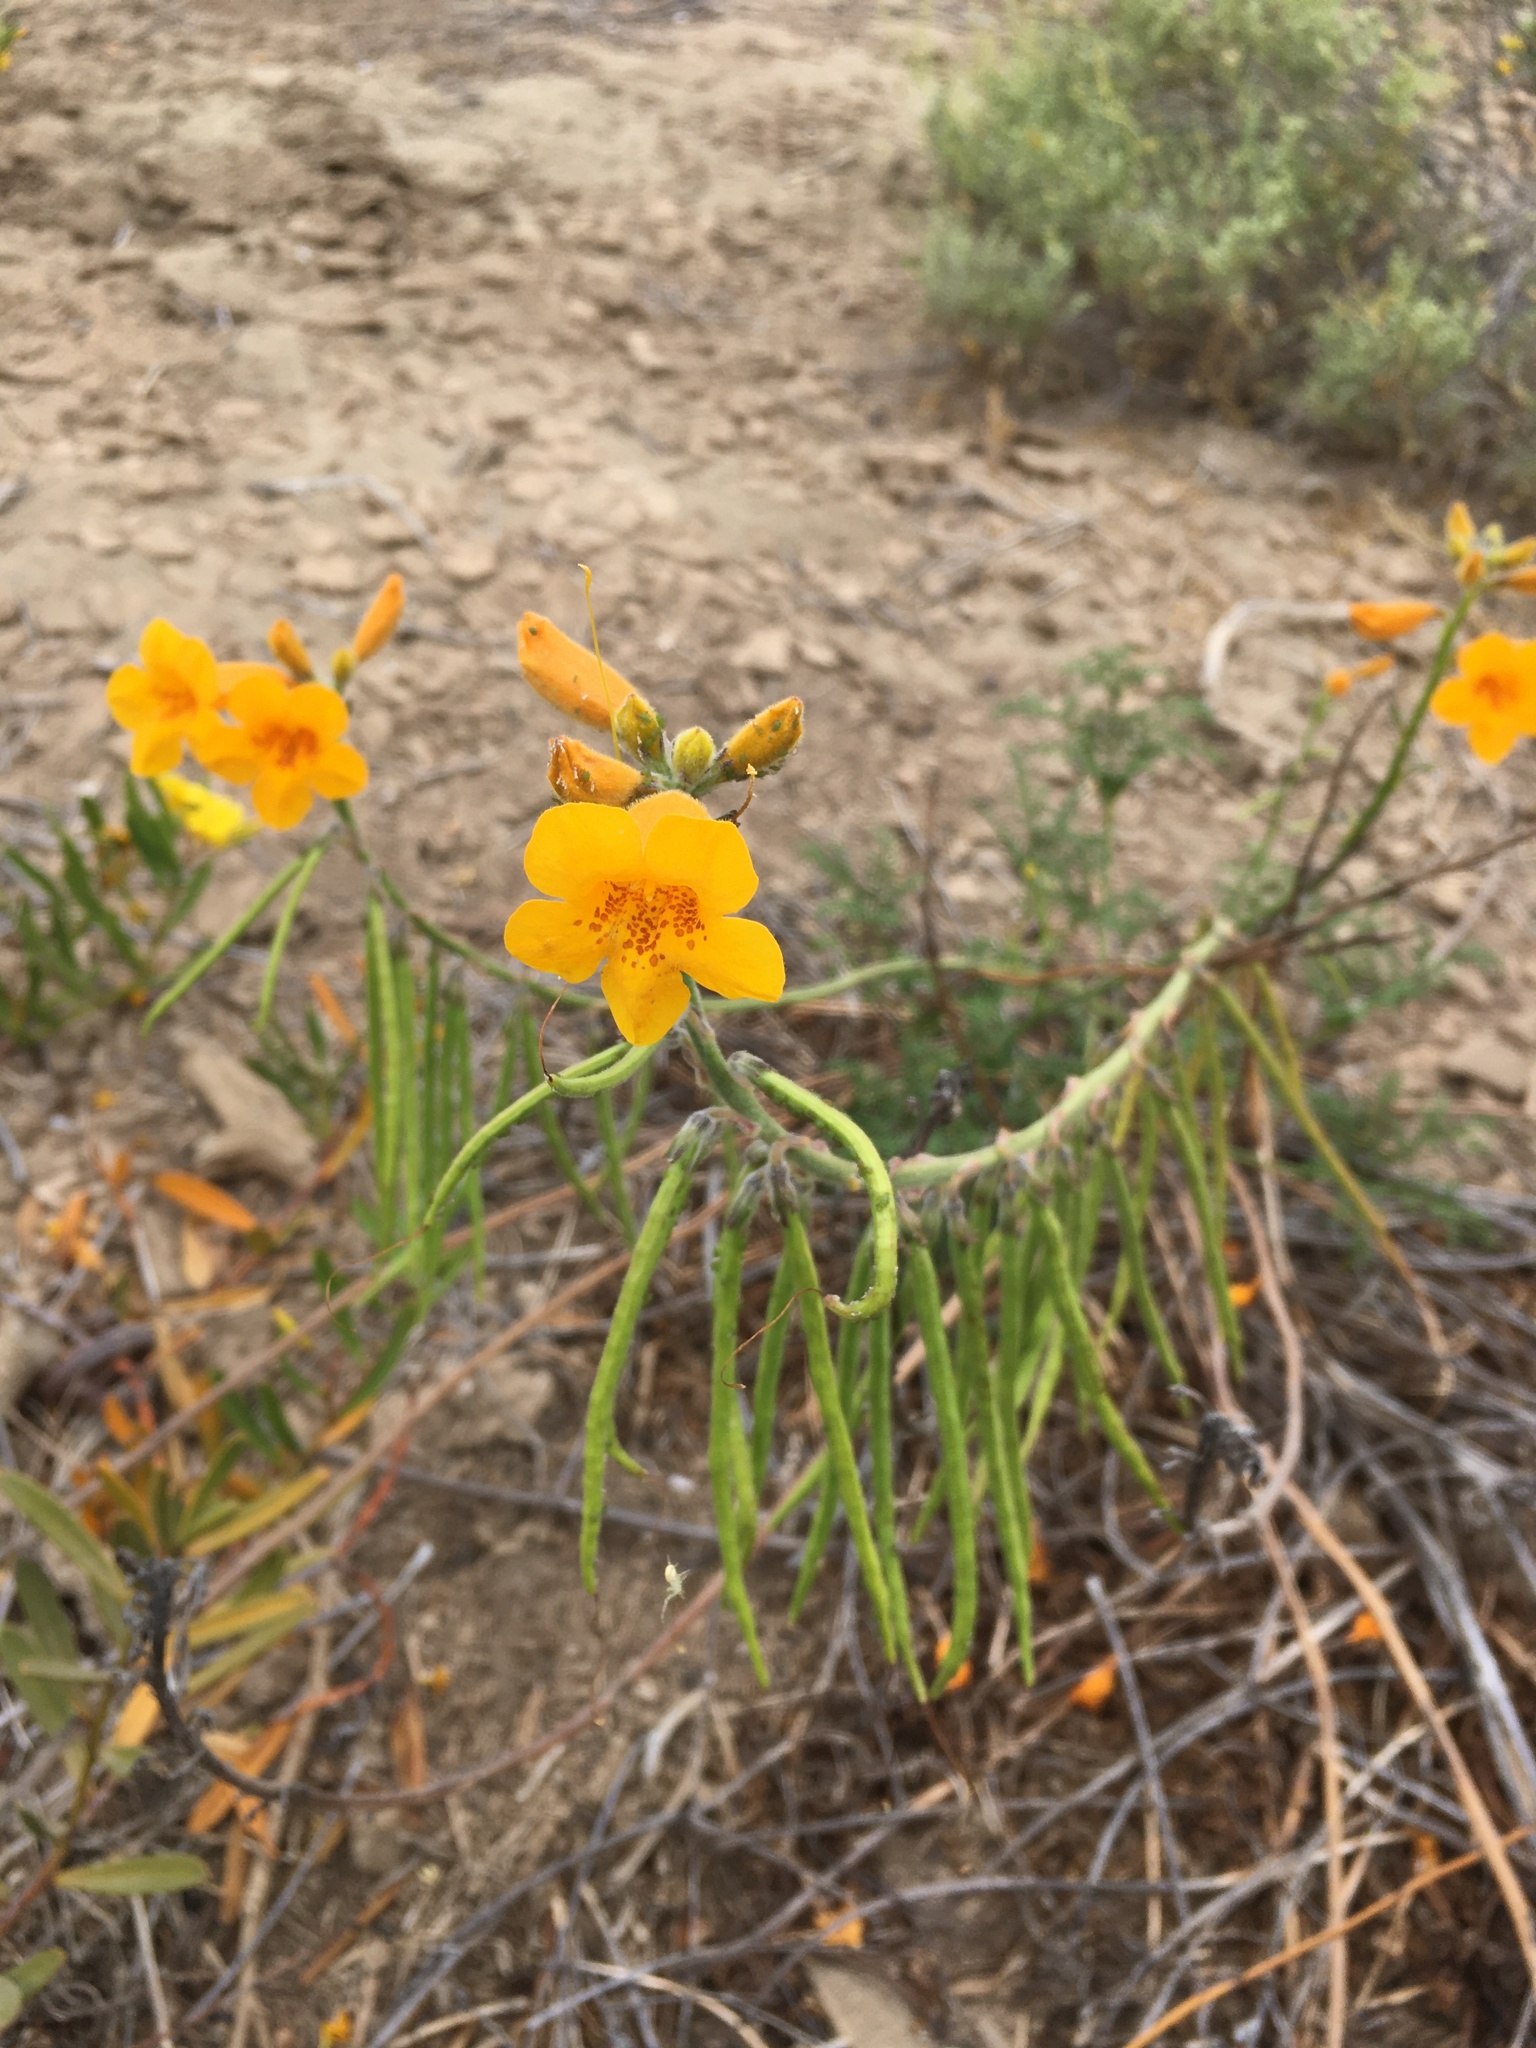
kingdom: Plantae
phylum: Tracheophyta
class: Magnoliopsida
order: Lamiales
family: Bignoniaceae
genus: Argylia
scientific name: Argylia radiata
